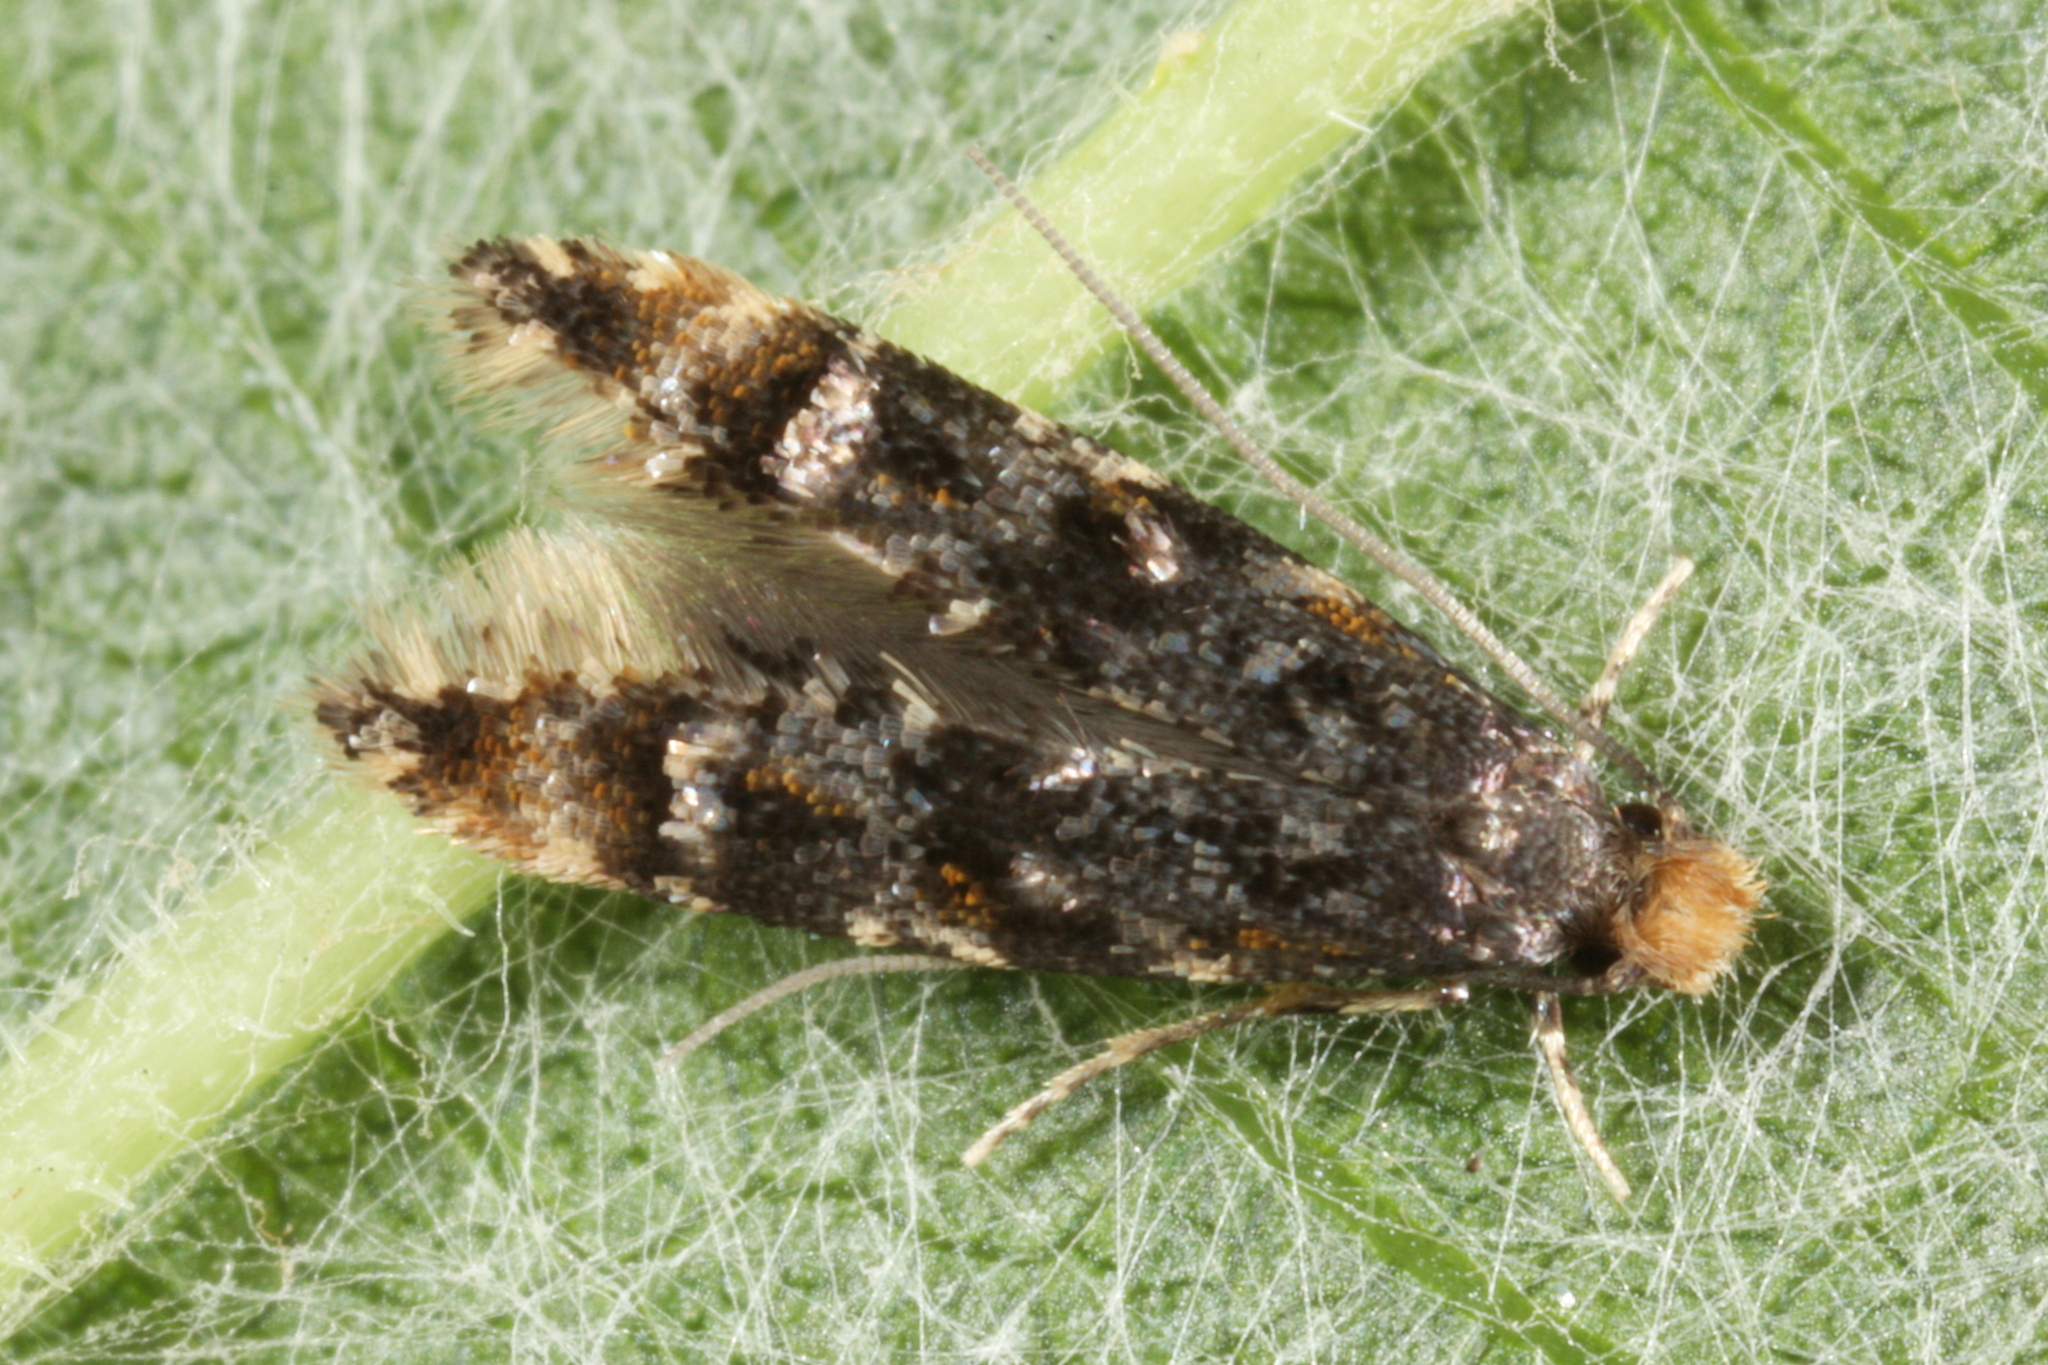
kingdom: Animalia
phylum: Arthropoda
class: Insecta
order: Lepidoptera
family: Meessiidae
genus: Stenoptinea
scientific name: Stenoptinea cyaneimarmorella
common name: Barred brown clothes moth
